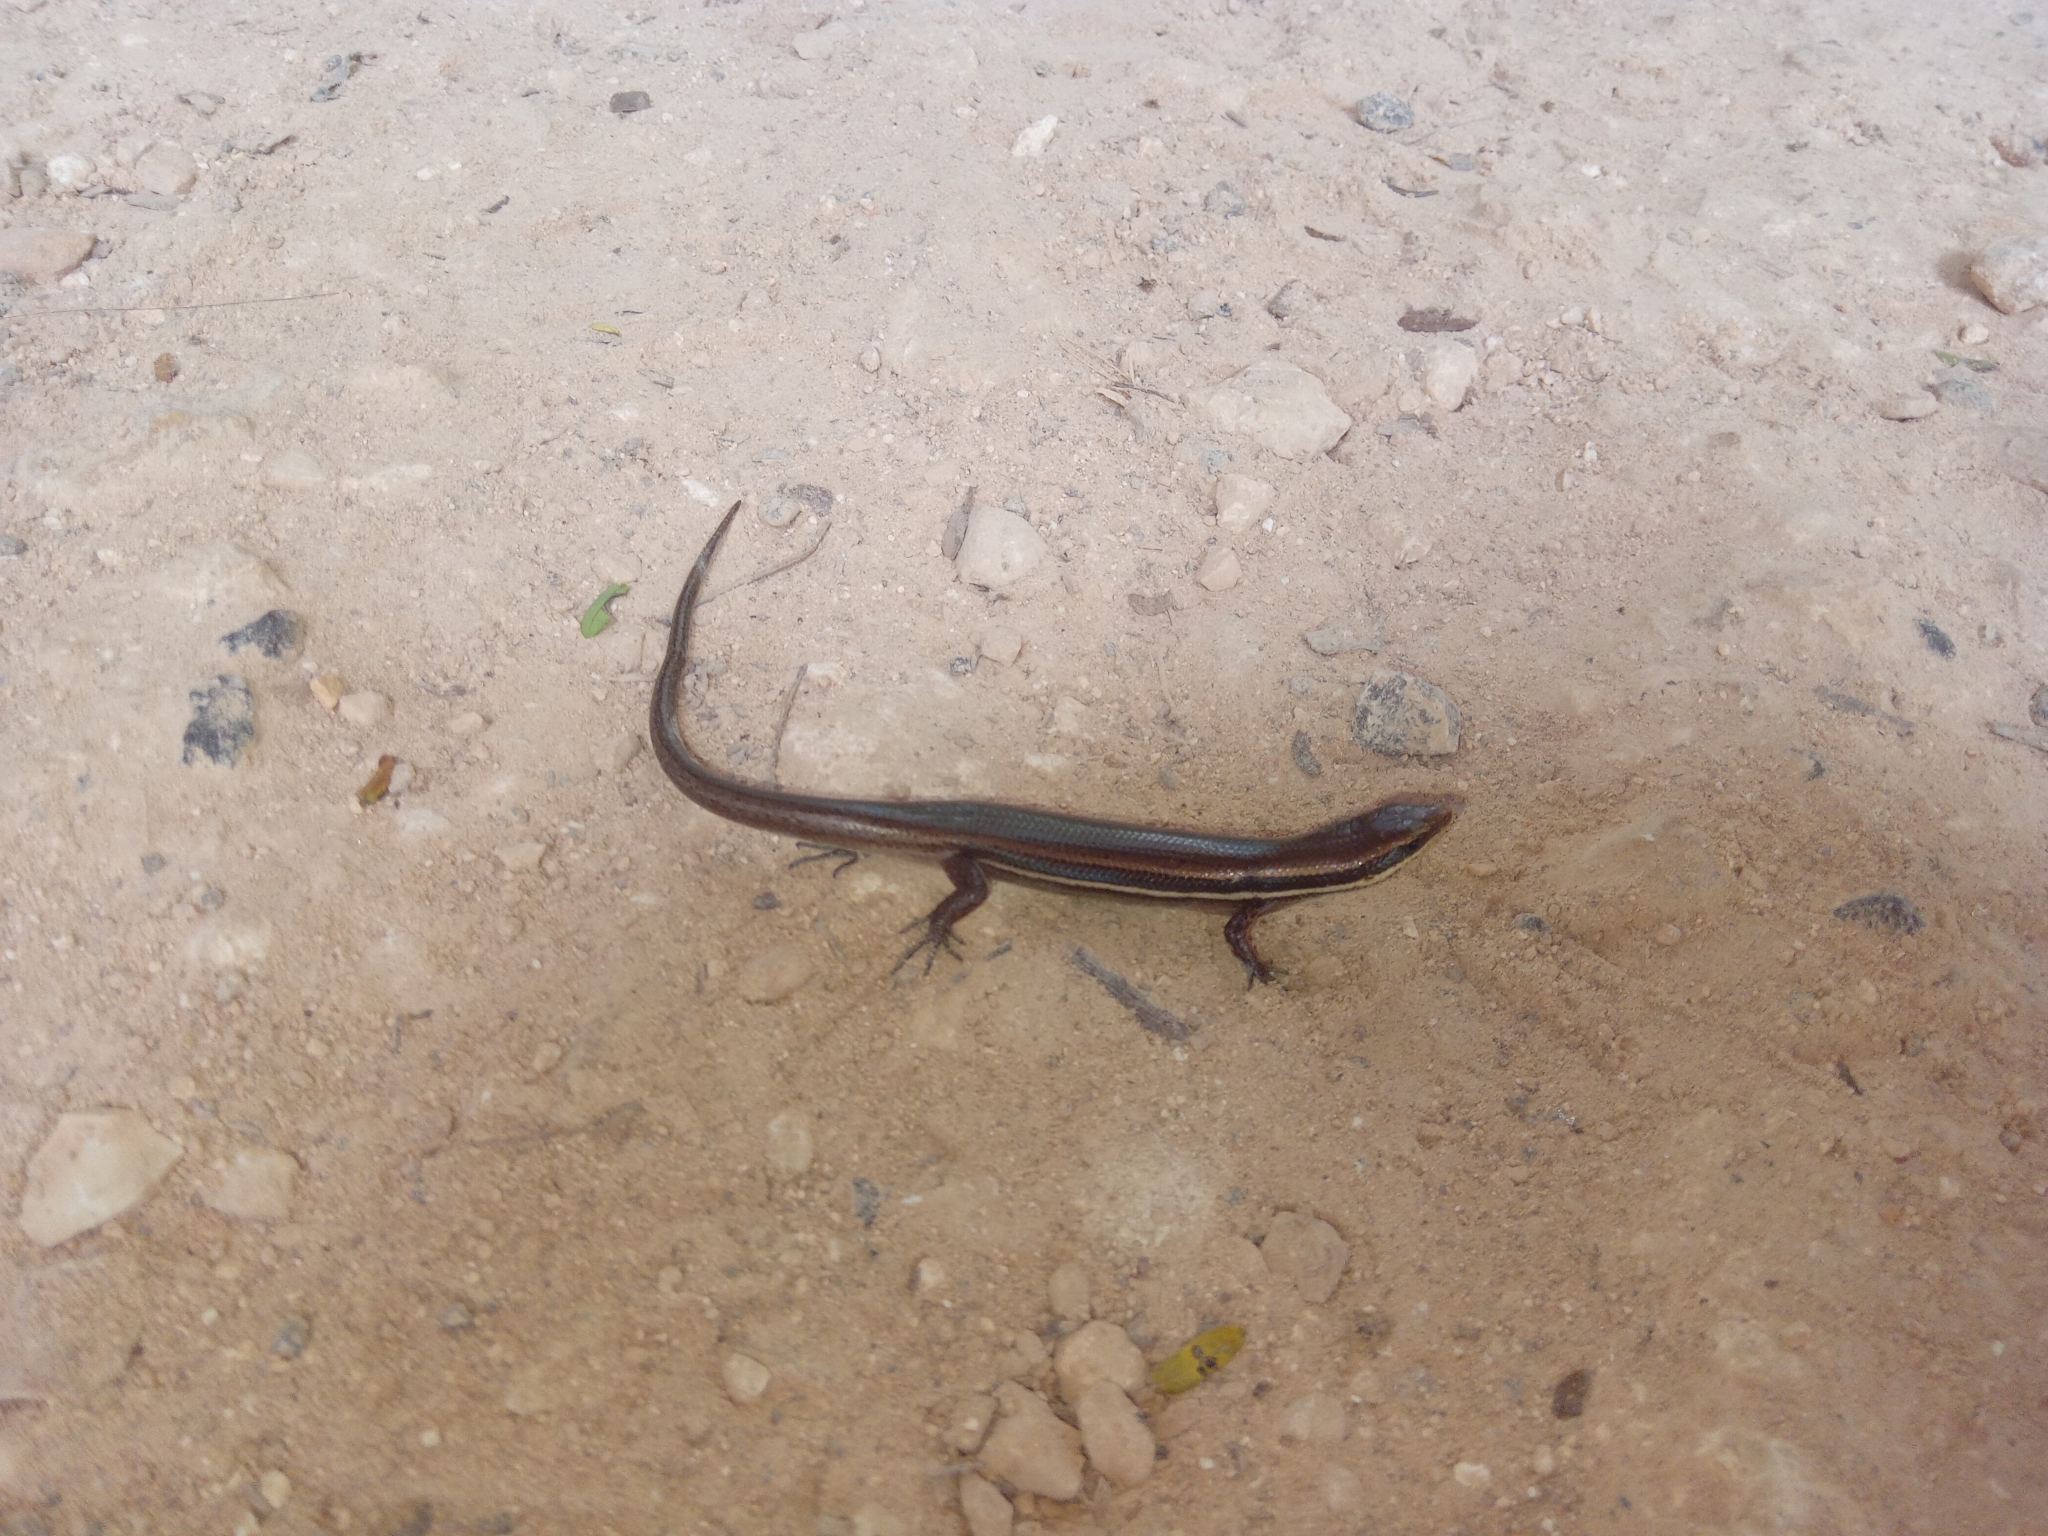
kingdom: Animalia
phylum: Chordata
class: Squamata
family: Scincidae
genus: Marisora
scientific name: Marisora lineola
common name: Mayan skink
